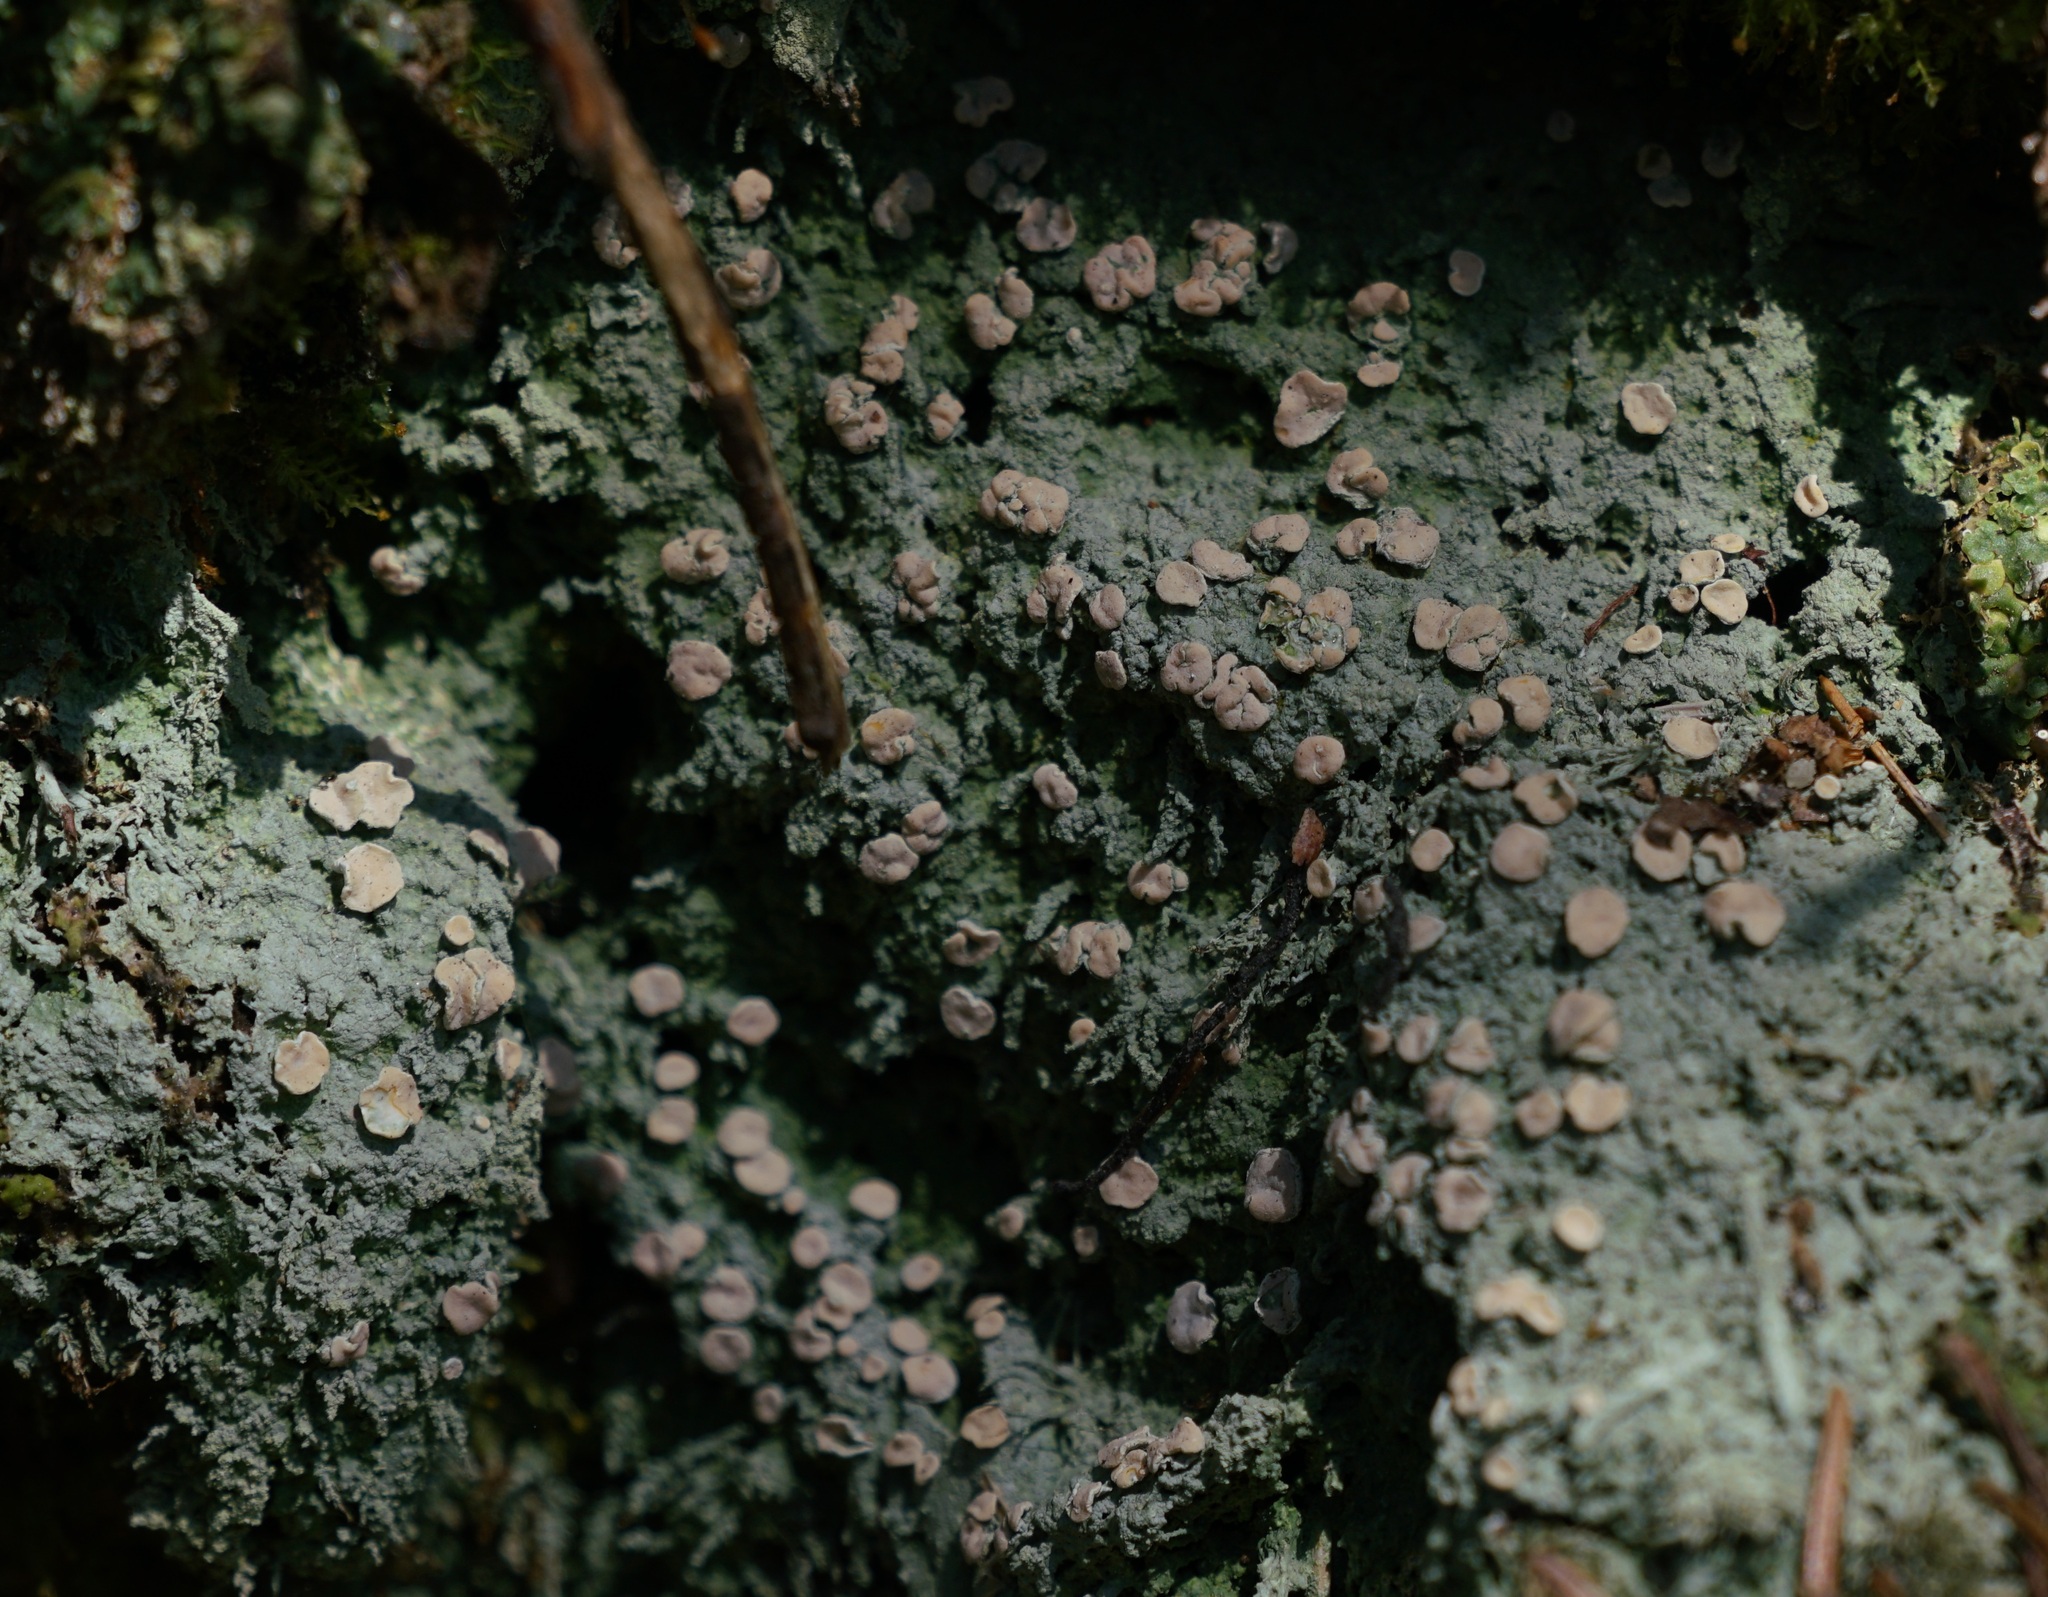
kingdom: Fungi
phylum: Ascomycota
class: Lecanoromycetes
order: Pertusariales
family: Icmadophilaceae
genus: Icmadophila
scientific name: Icmadophila ericetorum
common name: Candy lichen
